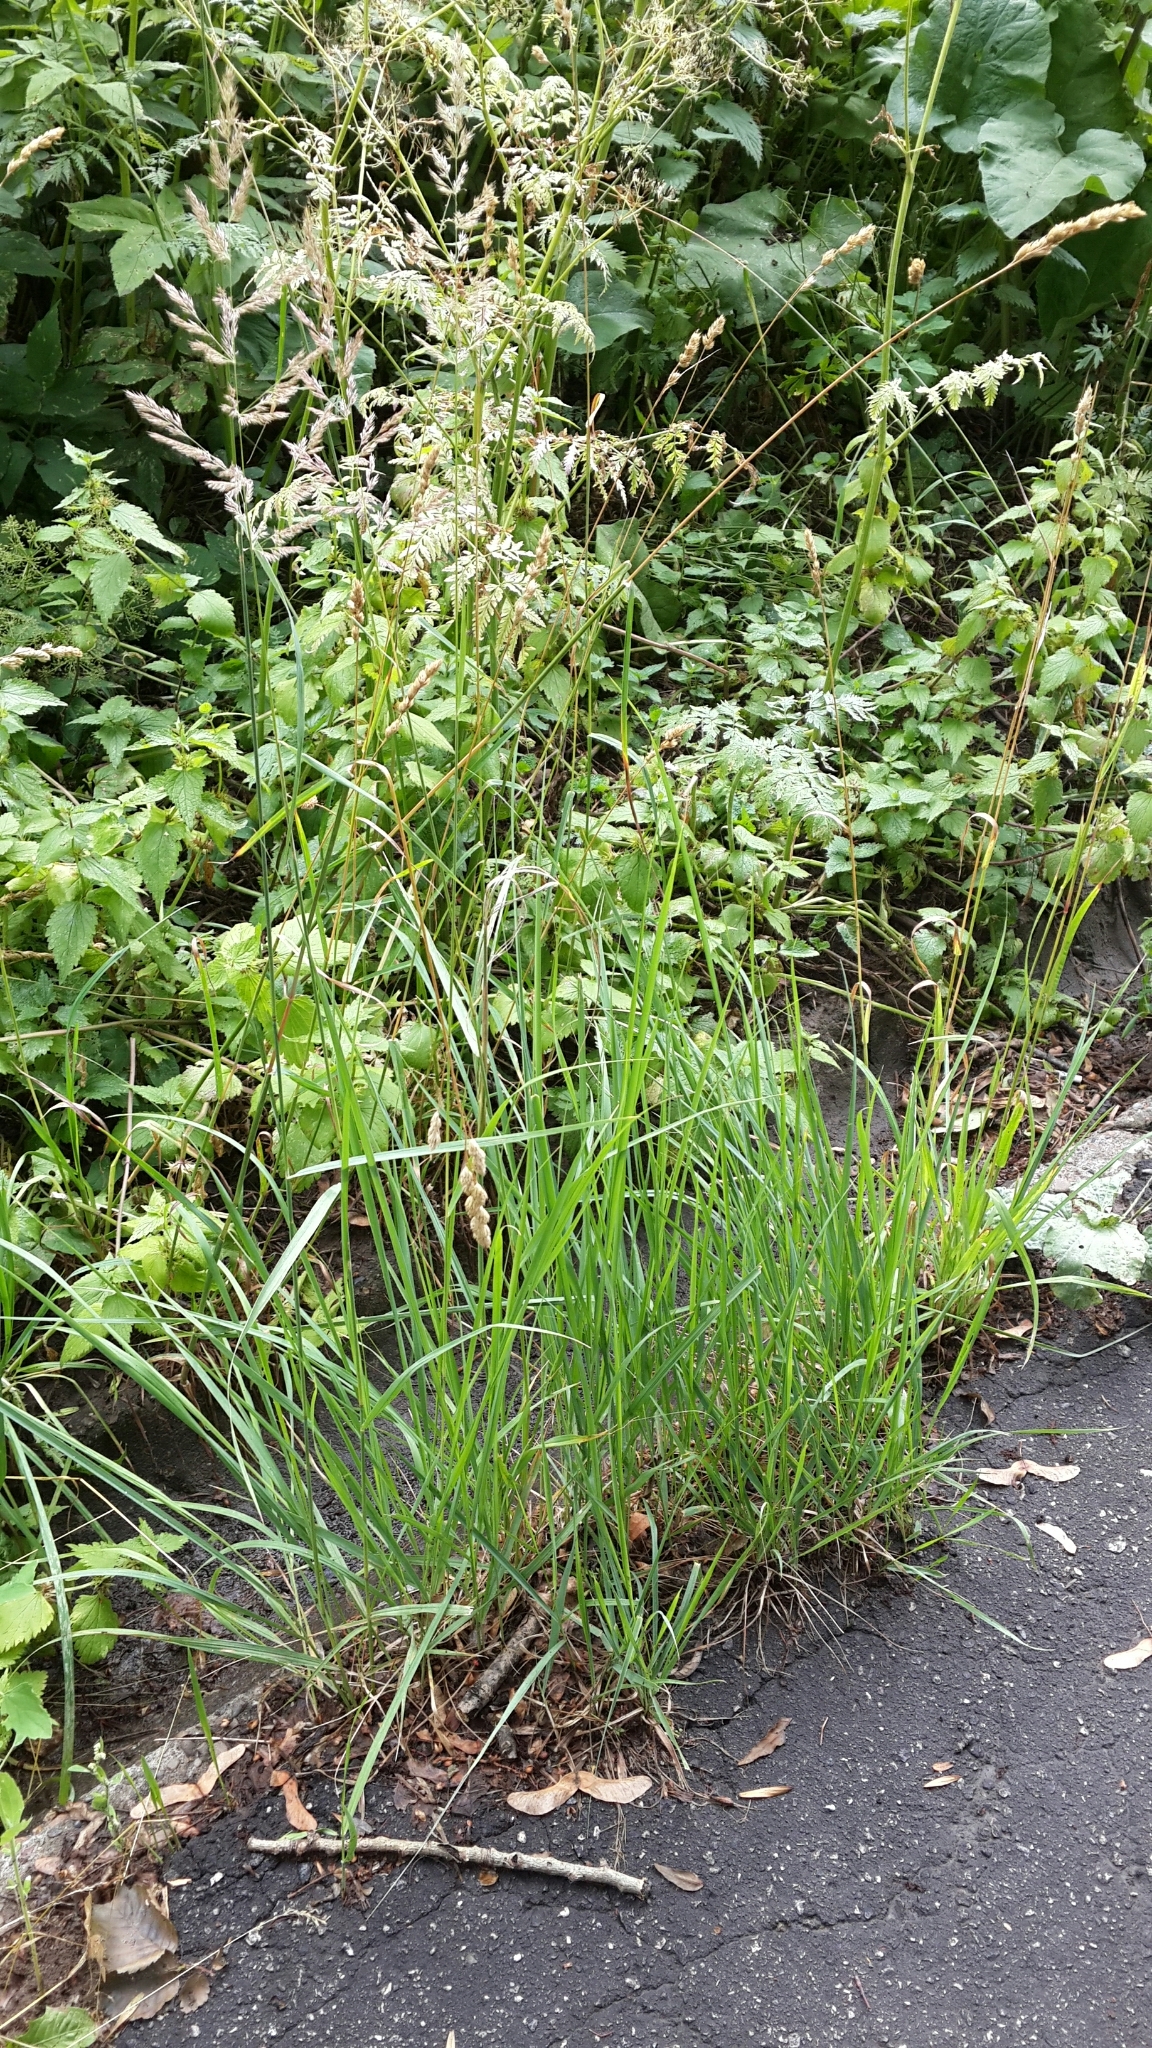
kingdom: Plantae
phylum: Tracheophyta
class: Liliopsida
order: Poales
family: Poaceae
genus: Calamagrostis
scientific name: Calamagrostis epigejos
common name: Wood small-reed
